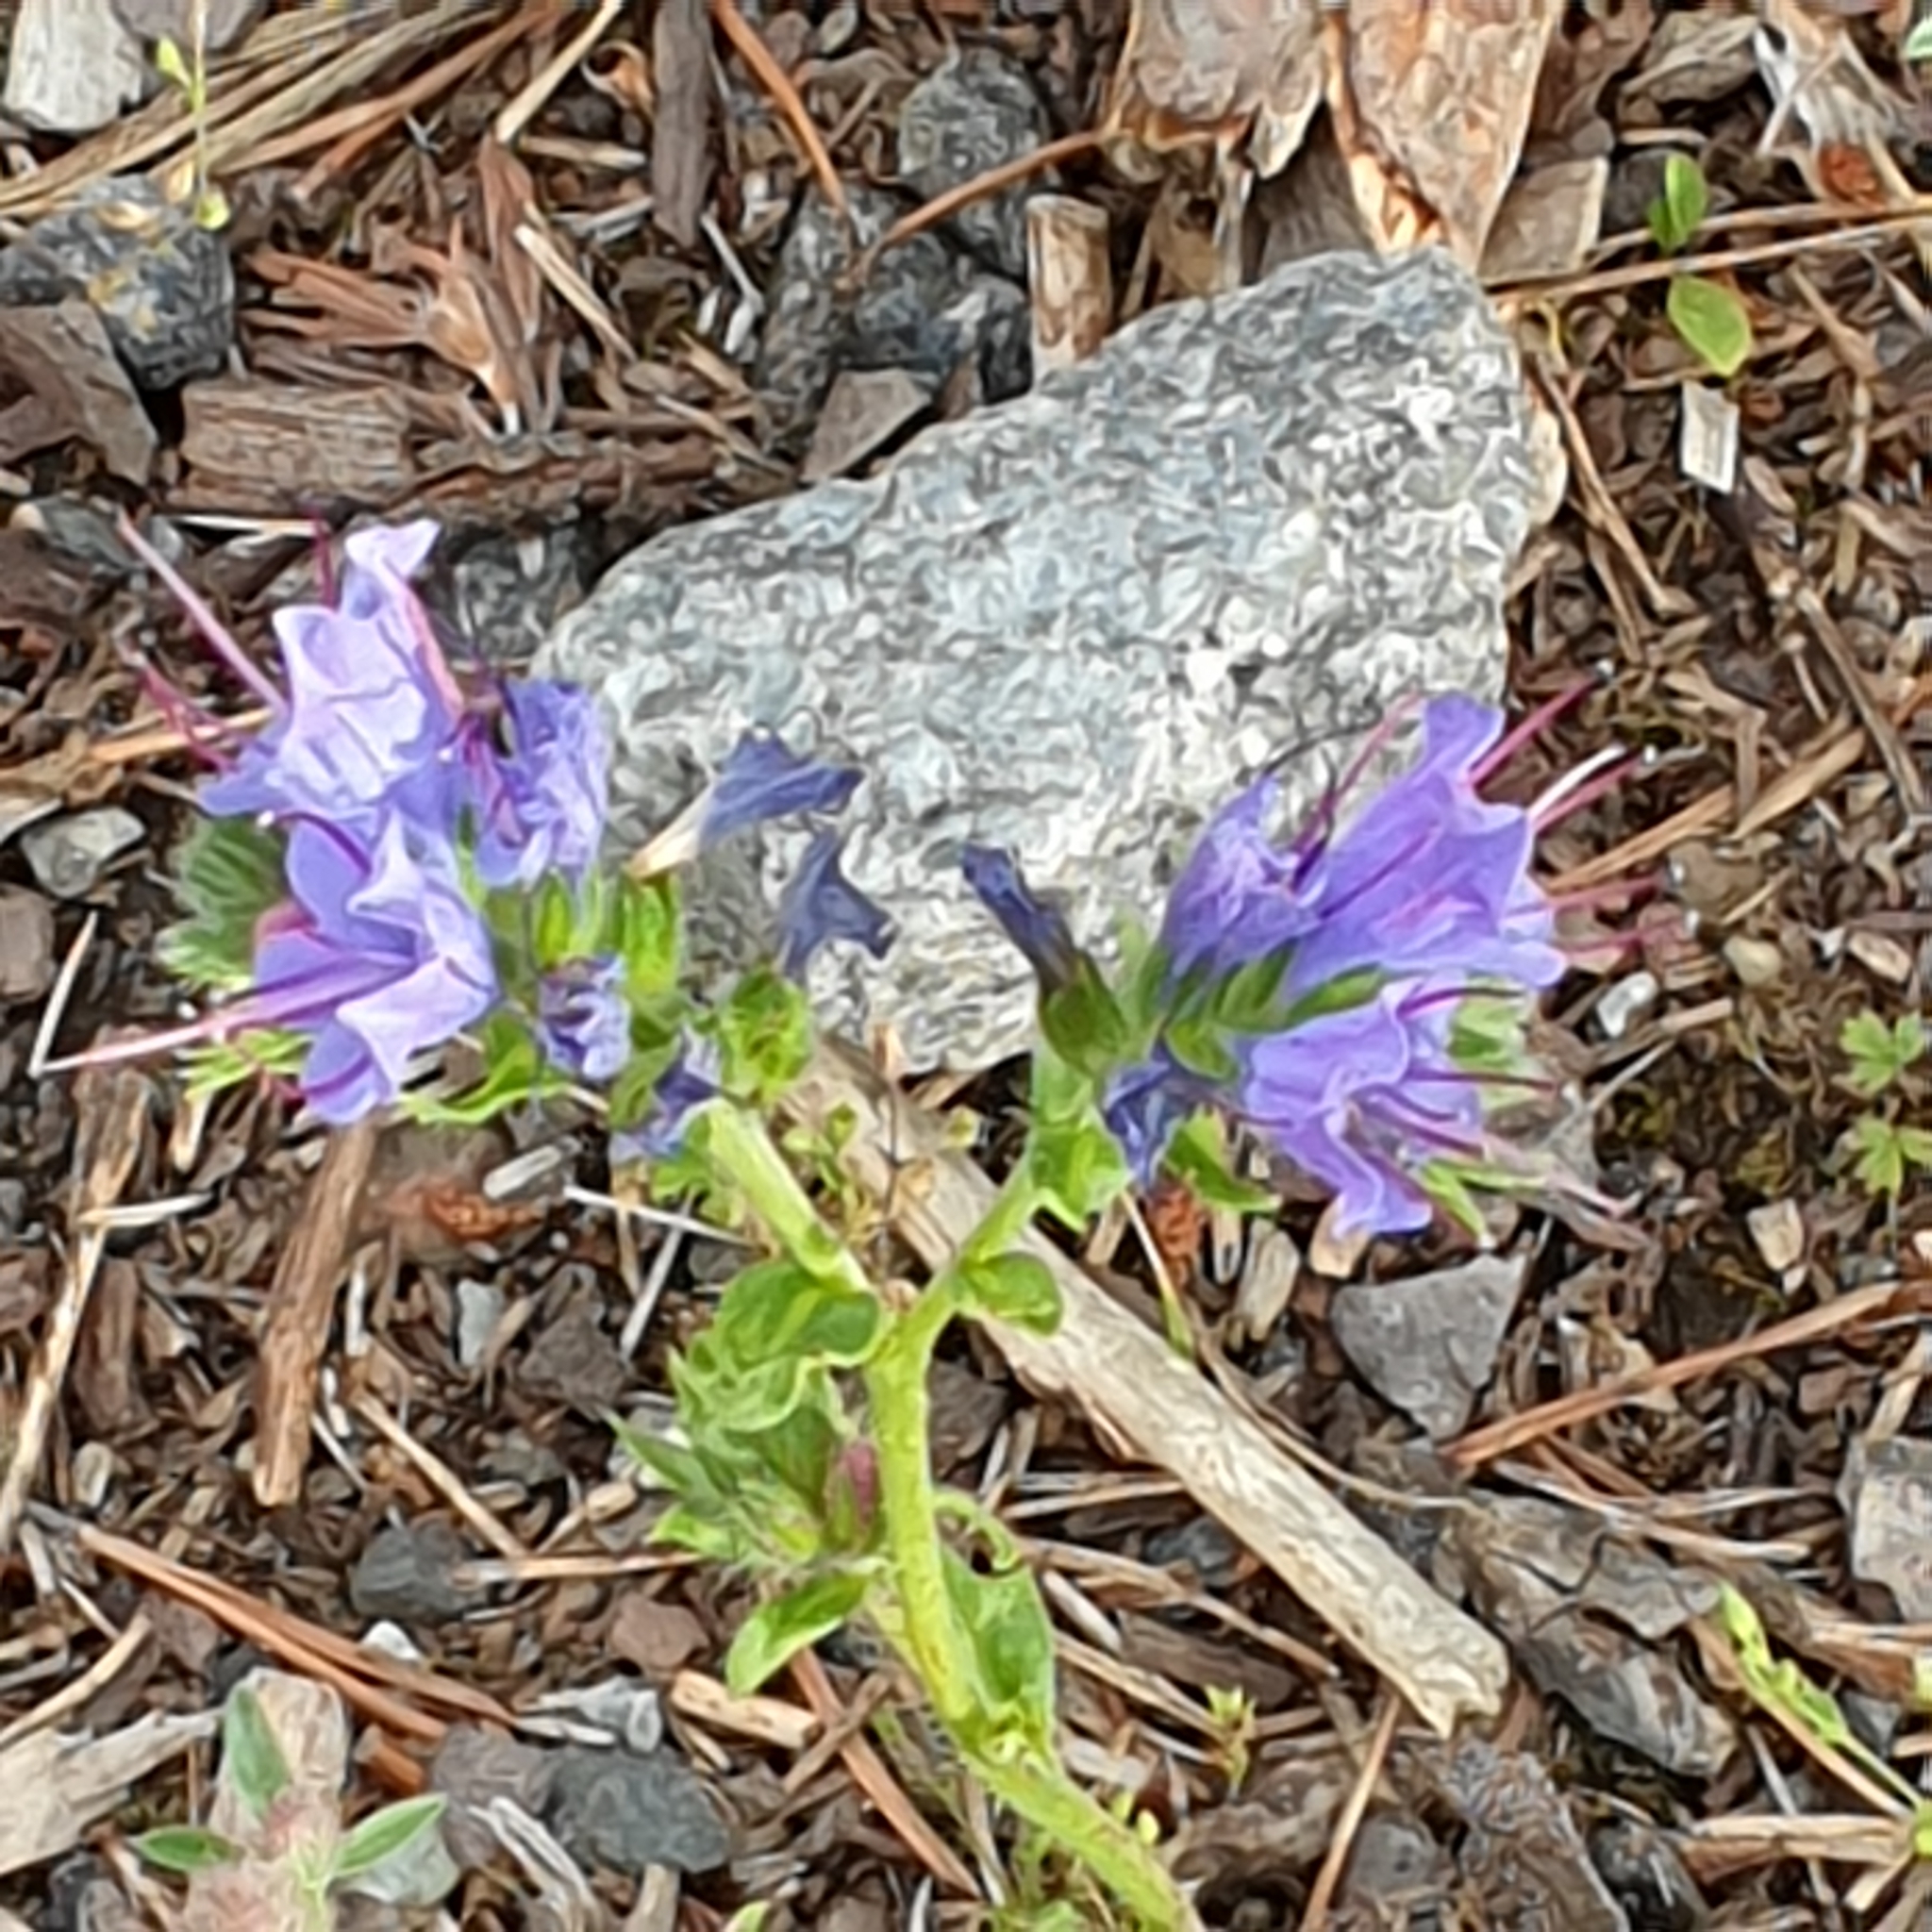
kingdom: Plantae
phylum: Tracheophyta
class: Magnoliopsida
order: Boraginales
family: Boraginaceae
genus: Echium
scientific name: Echium vulgare
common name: Common viper's bugloss
